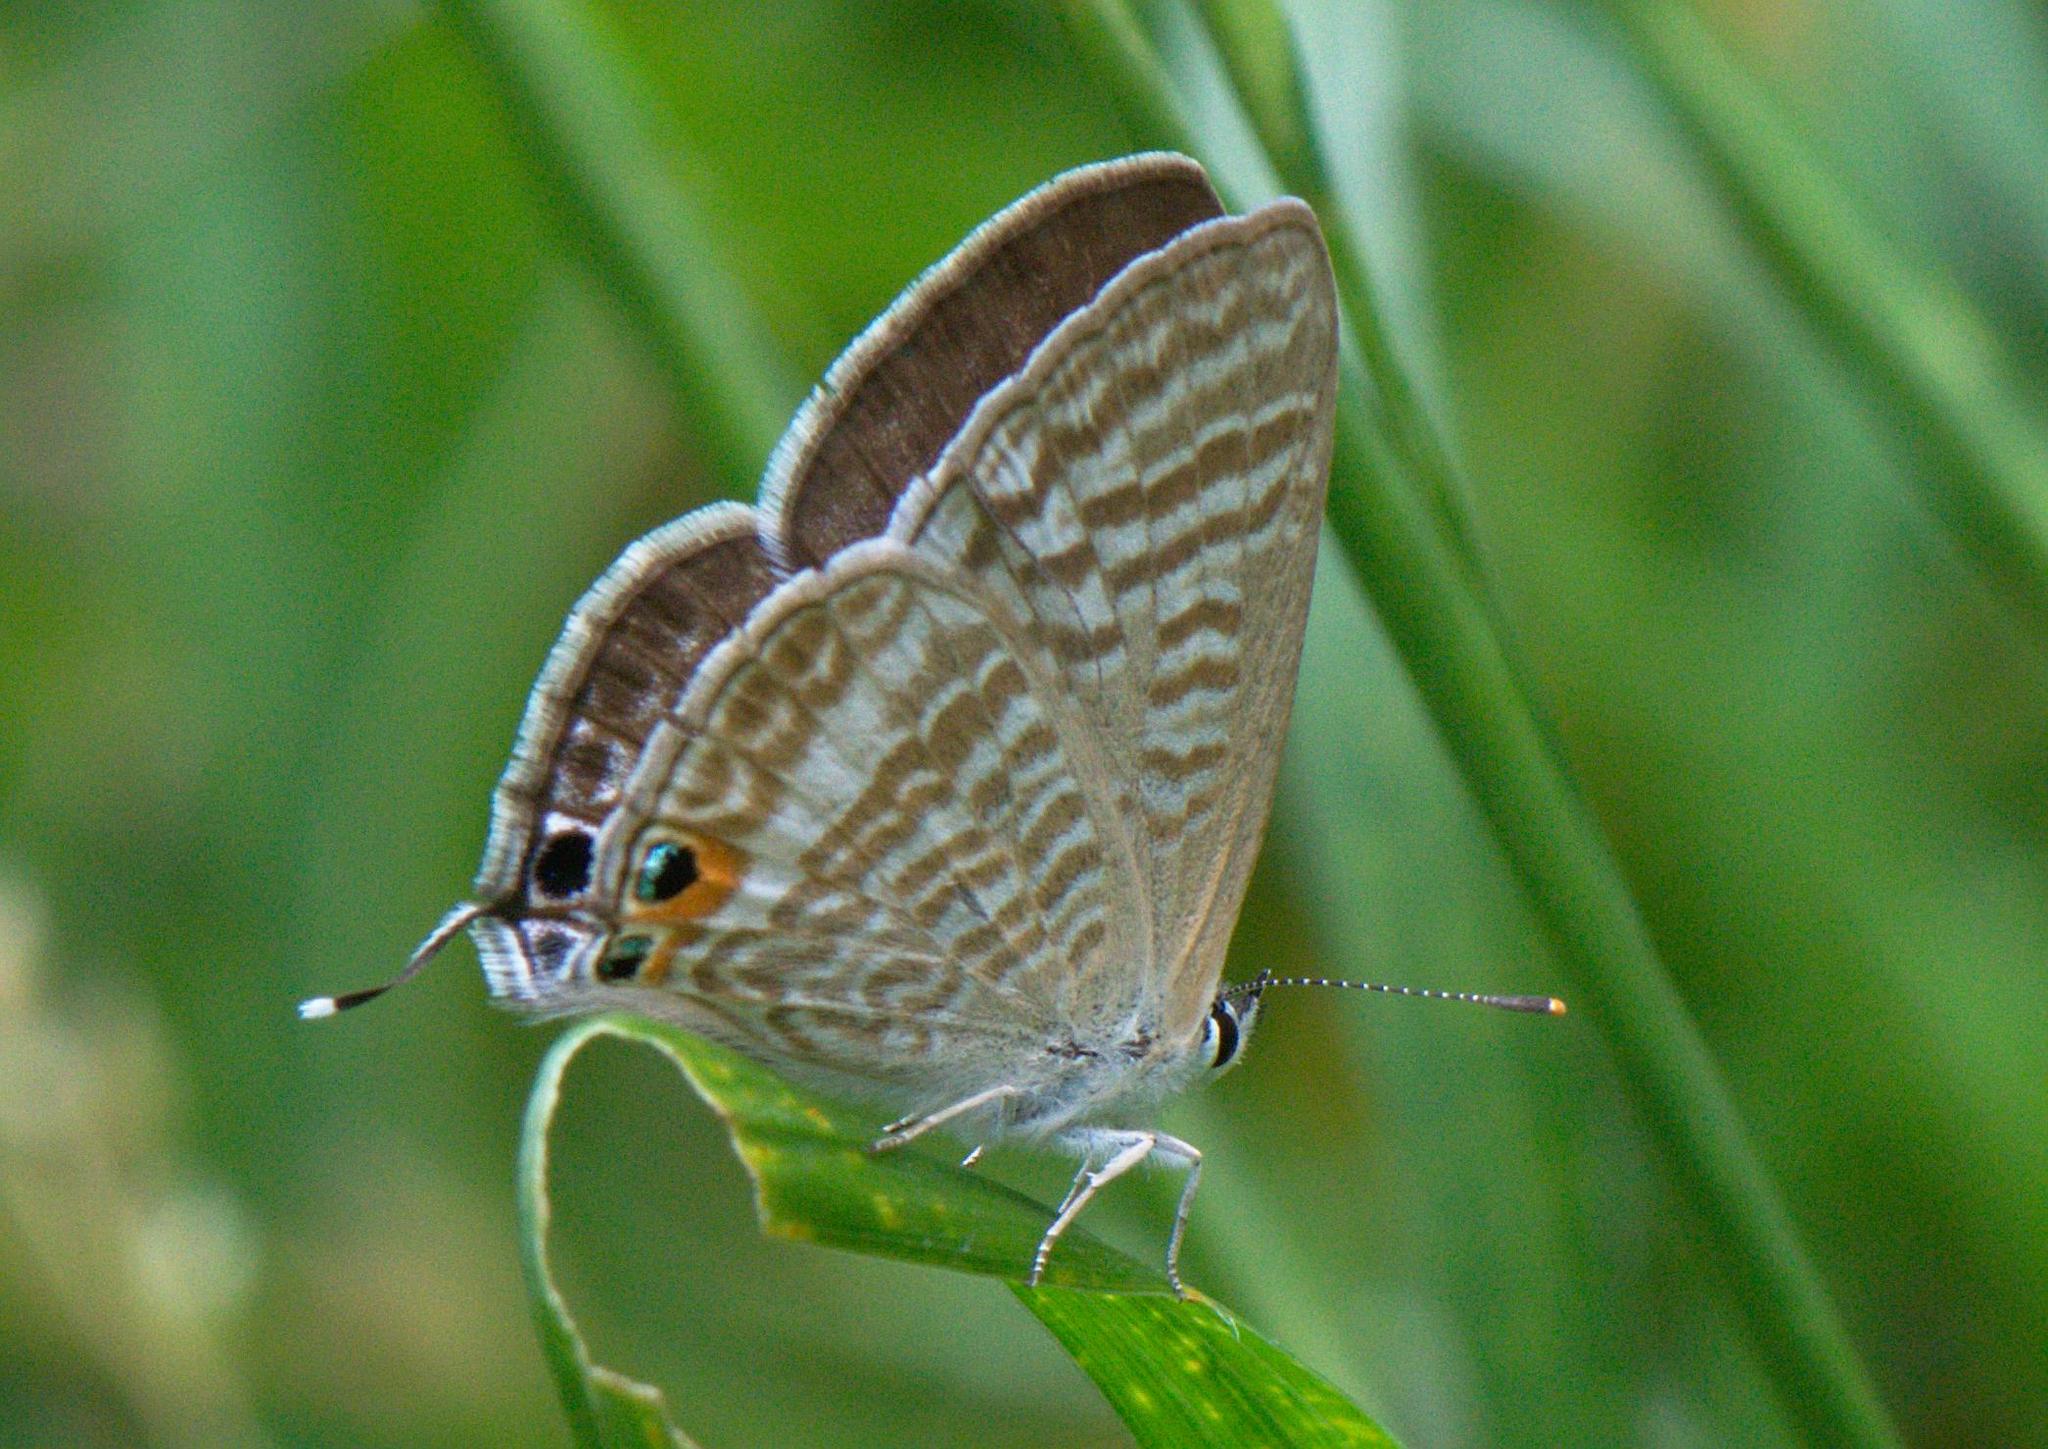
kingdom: Animalia
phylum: Arthropoda
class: Insecta
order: Lepidoptera
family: Lycaenidae
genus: Lampides
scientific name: Lampides boeticus
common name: Long-tailed blue
